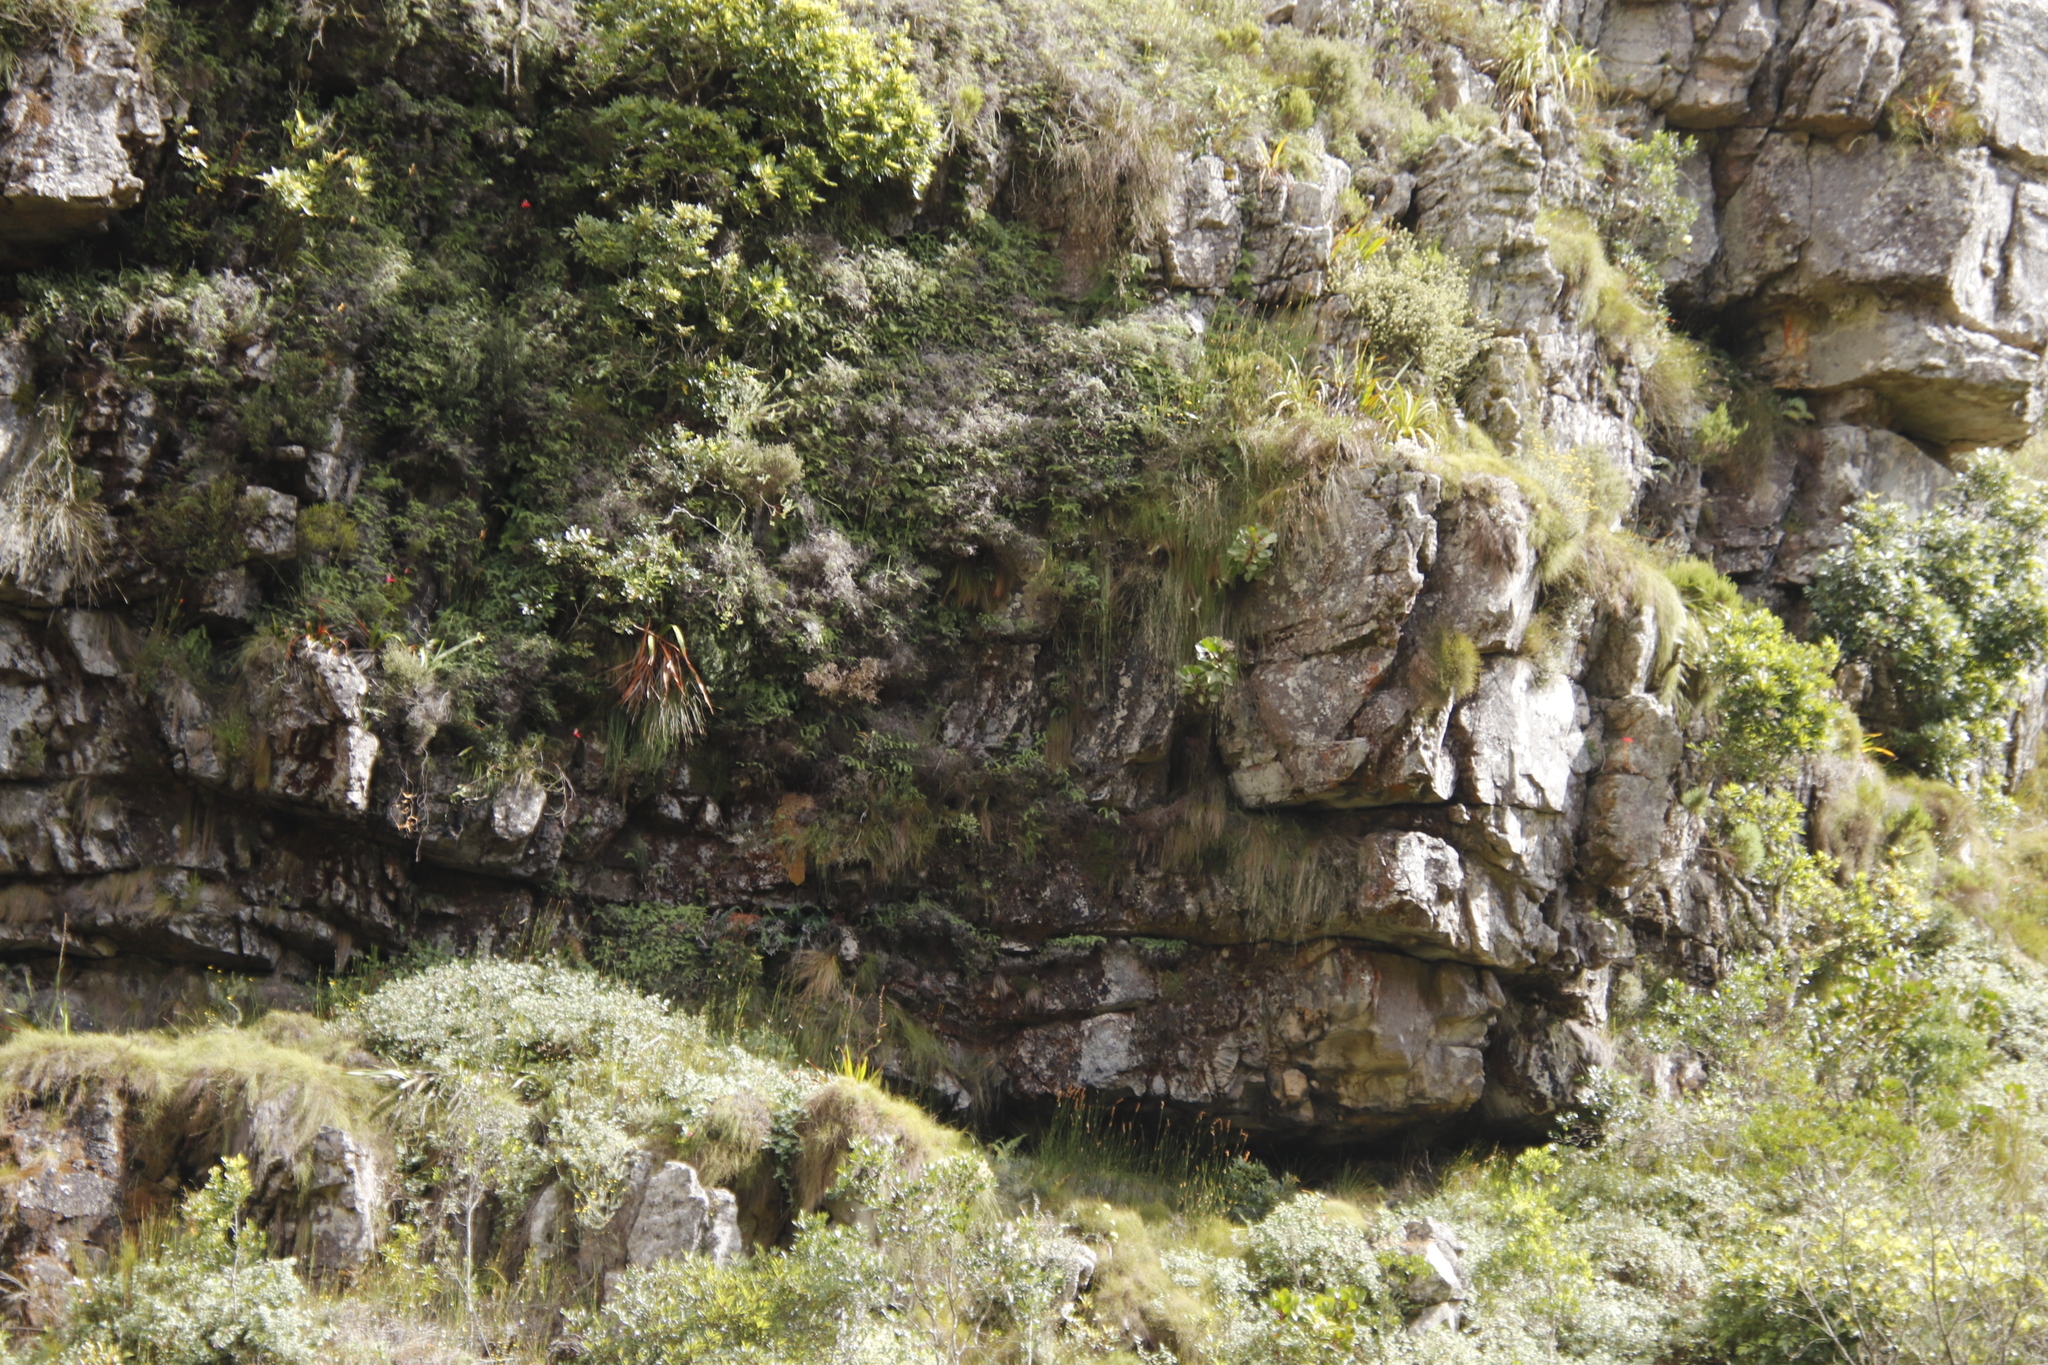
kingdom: Plantae
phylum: Tracheophyta
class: Magnoliopsida
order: Proteales
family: Proteaceae
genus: Protea
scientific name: Protea cynaroides
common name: King protea
